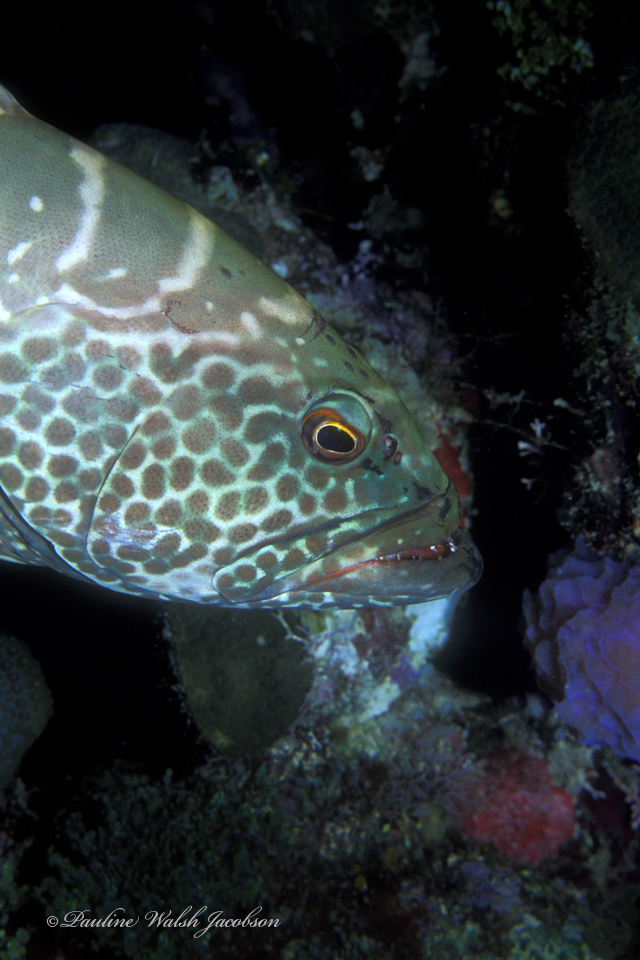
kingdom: Animalia
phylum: Chordata
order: Perciformes
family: Serranidae
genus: Mycteroperca
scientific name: Mycteroperca tigris
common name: Tiger grouper
